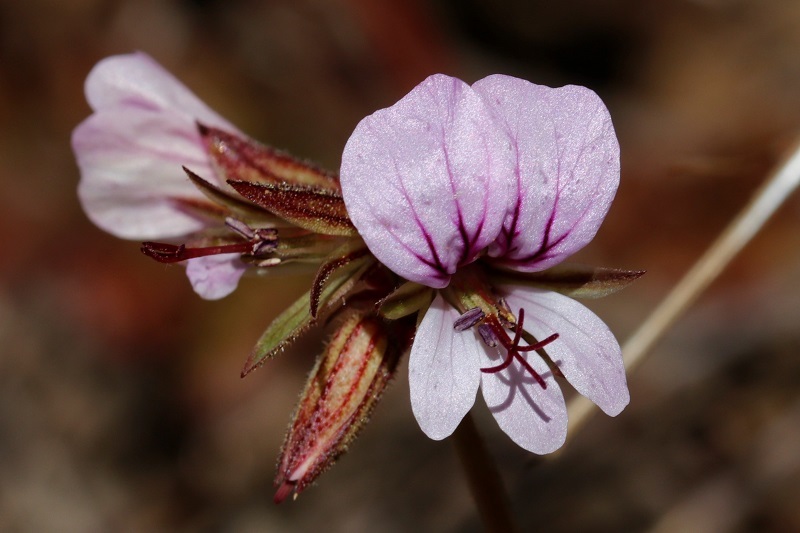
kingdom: Plantae
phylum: Tracheophyta
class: Magnoliopsida
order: Geraniales
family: Geraniaceae
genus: Pelargonium
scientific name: Pelargonium myrrhifolium
